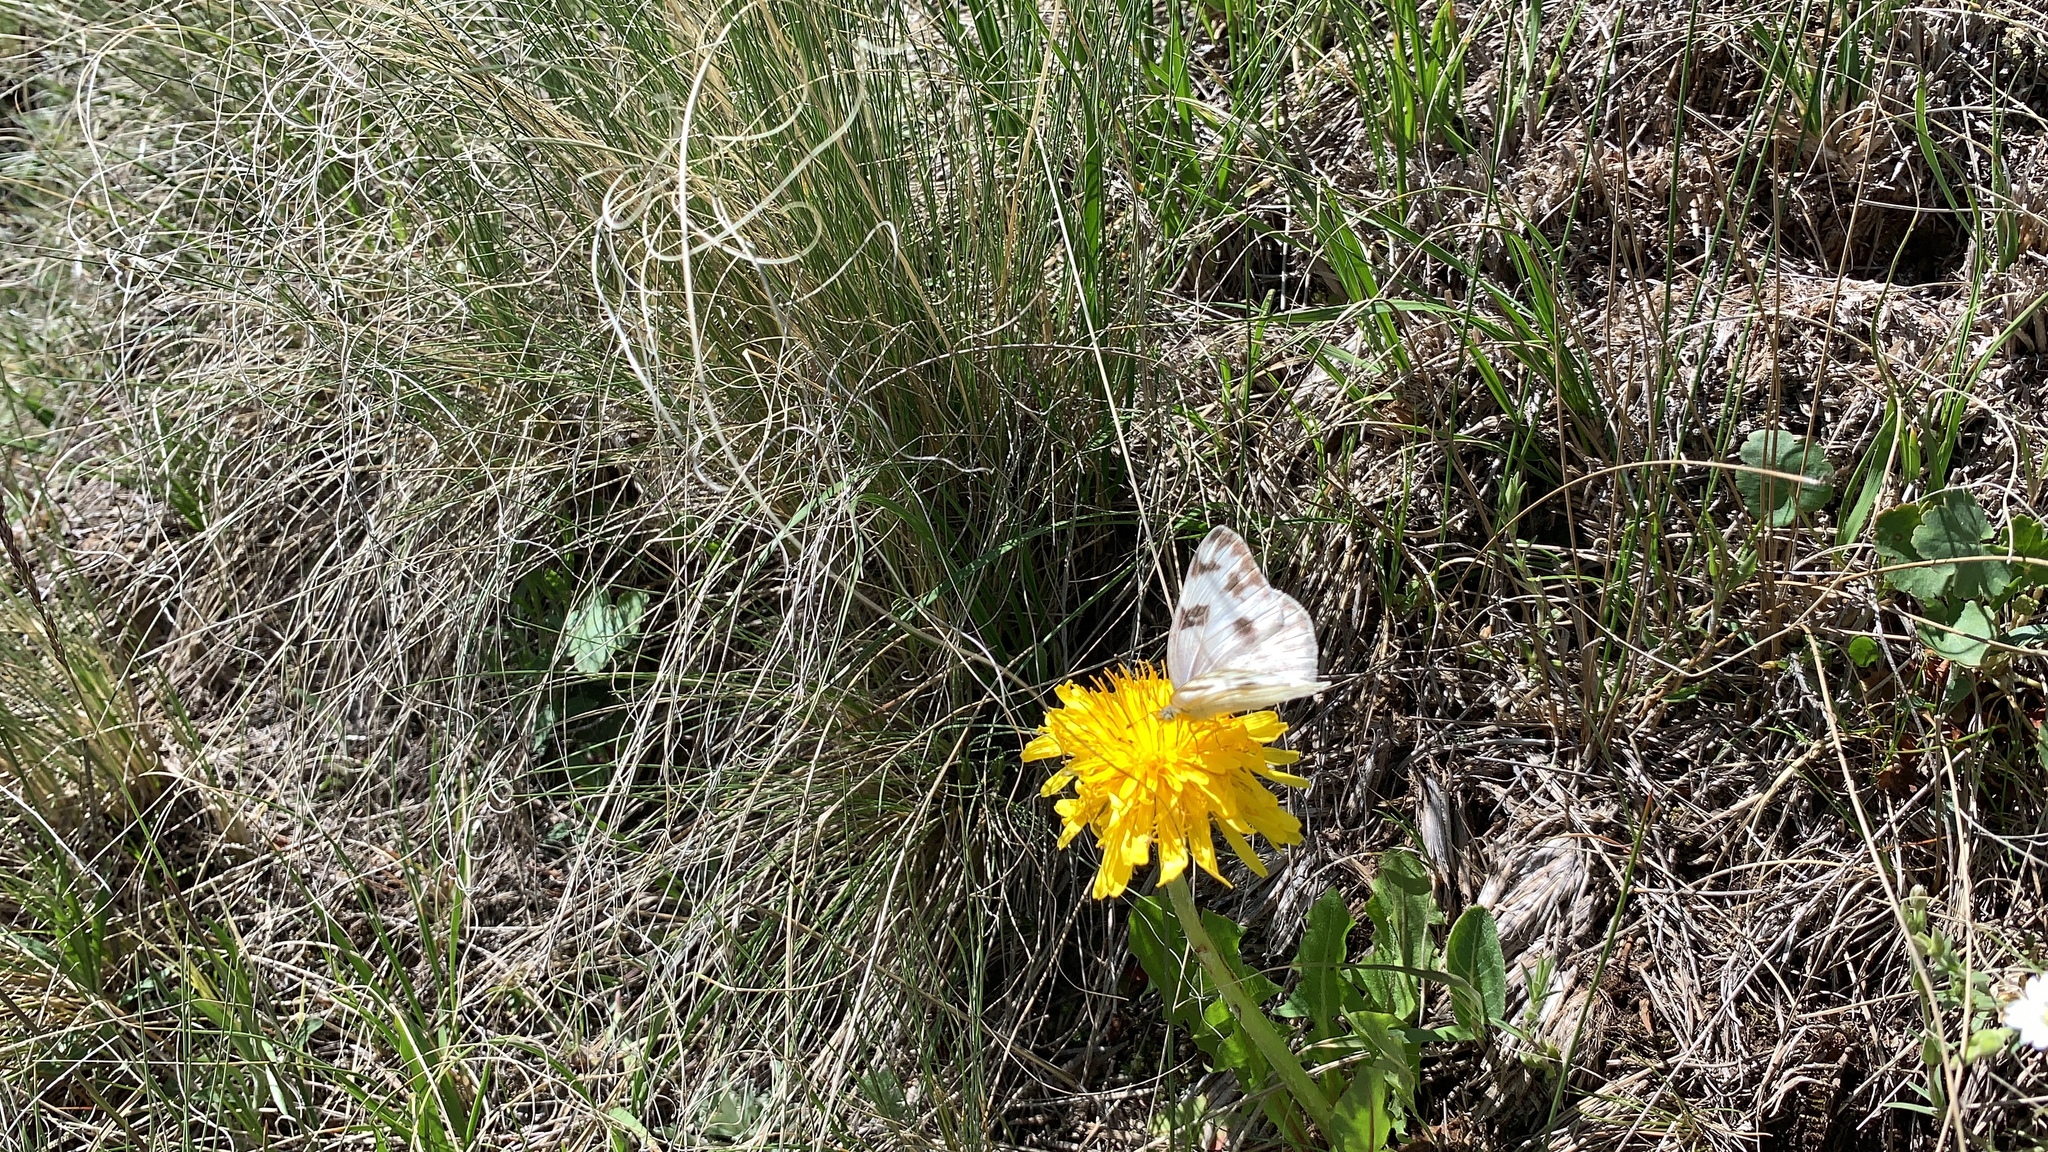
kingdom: Animalia
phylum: Arthropoda
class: Insecta
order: Lepidoptera
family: Pieridae
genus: Pontia
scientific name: Pontia protodice
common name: Checkered white
